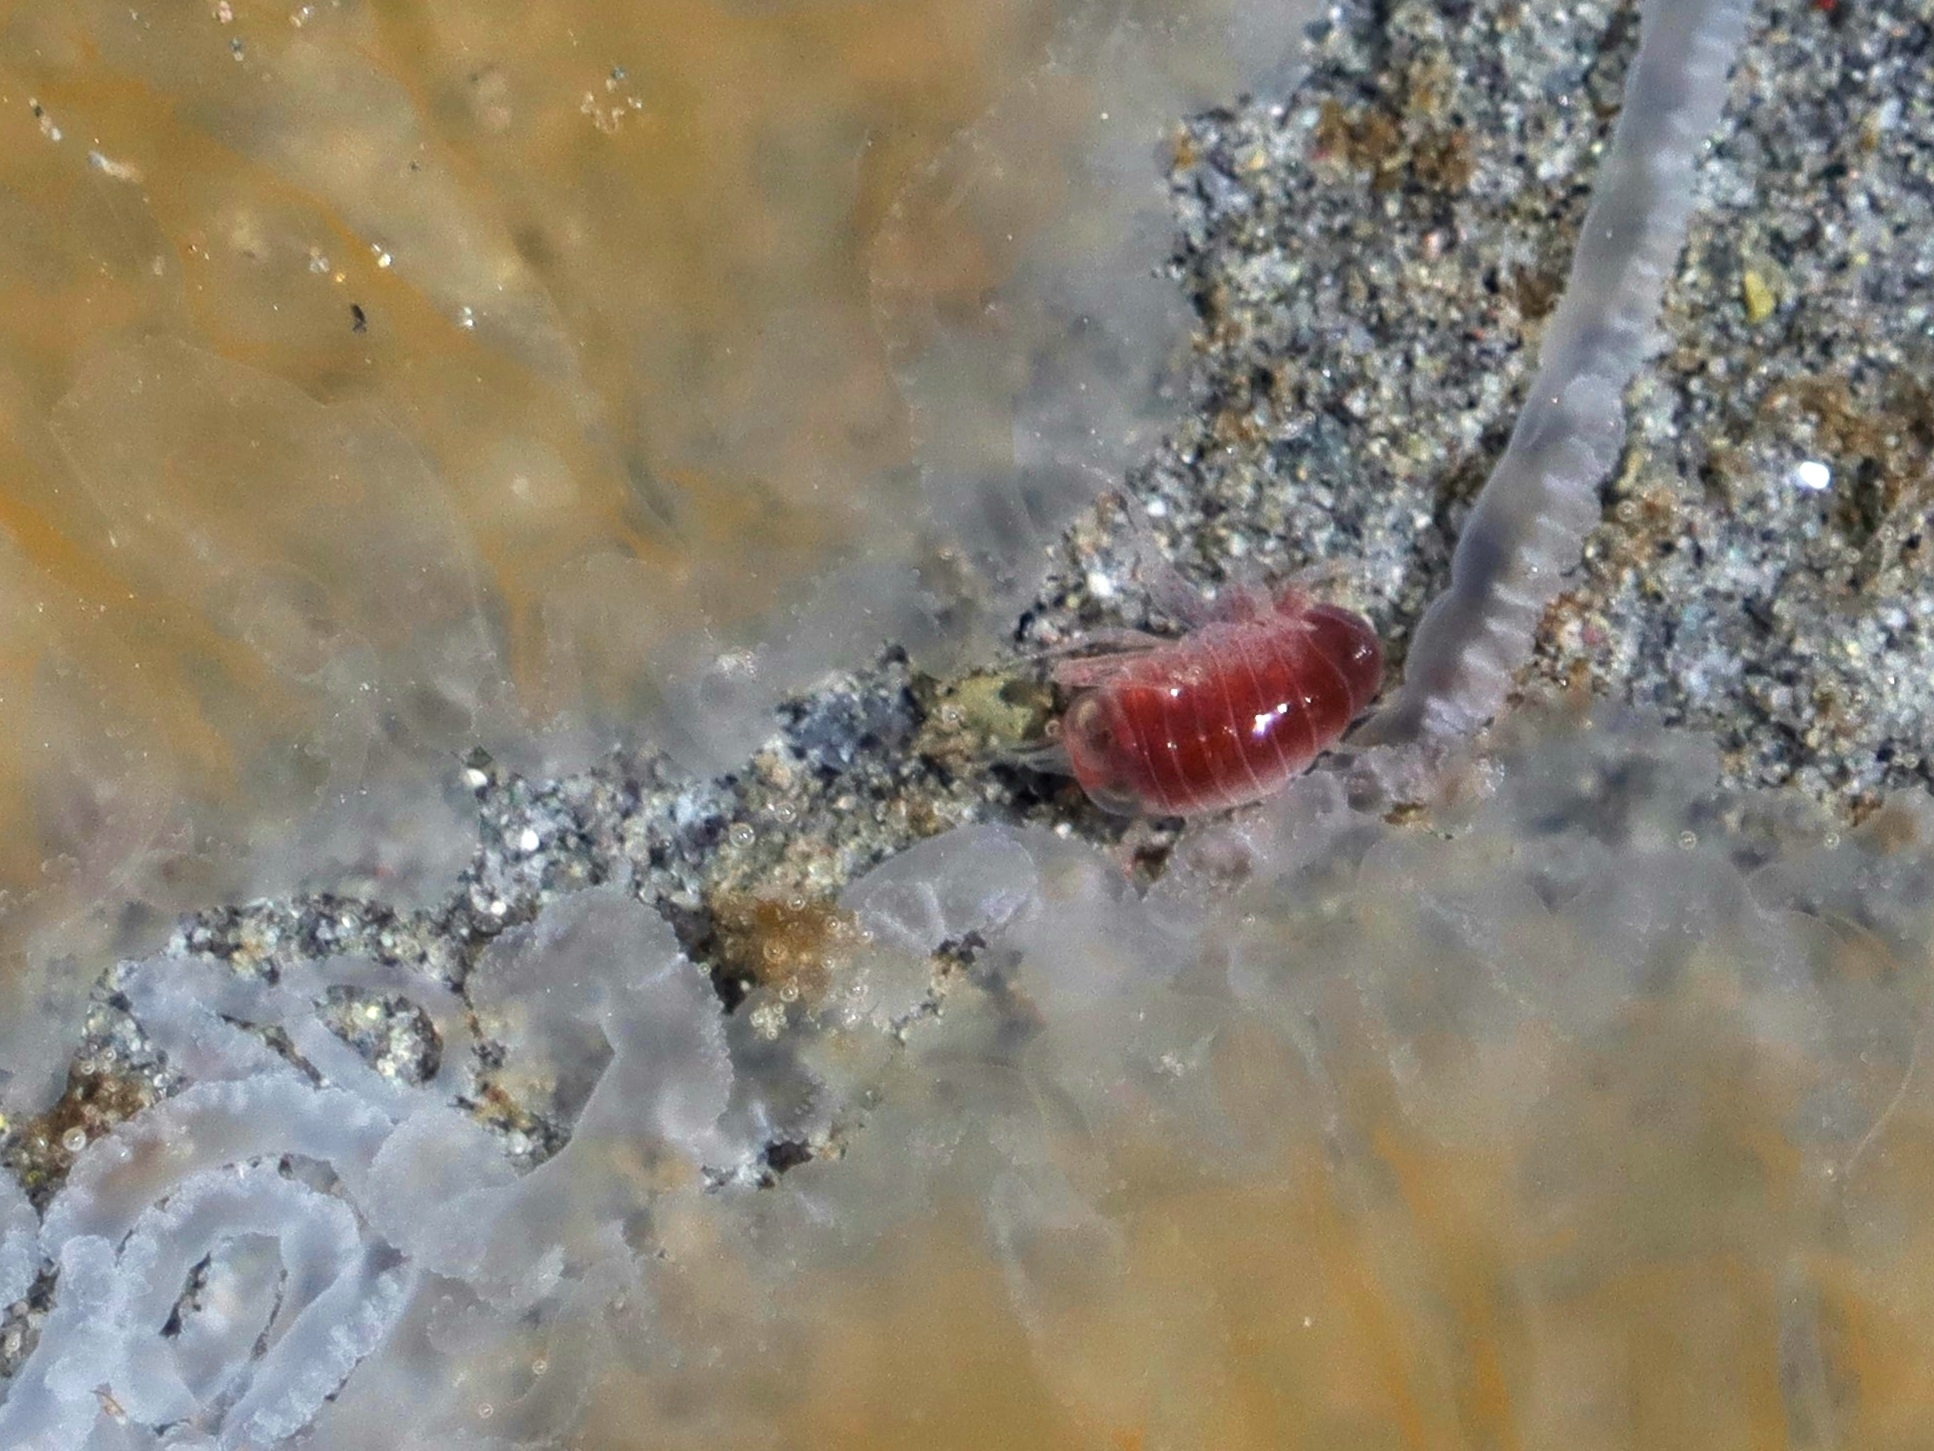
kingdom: Animalia
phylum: Arthropoda
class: Malacostraca
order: Amphipoda
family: Hyperiidae
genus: Hyperia
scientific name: Hyperia galba
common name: Big-eye amphipod
